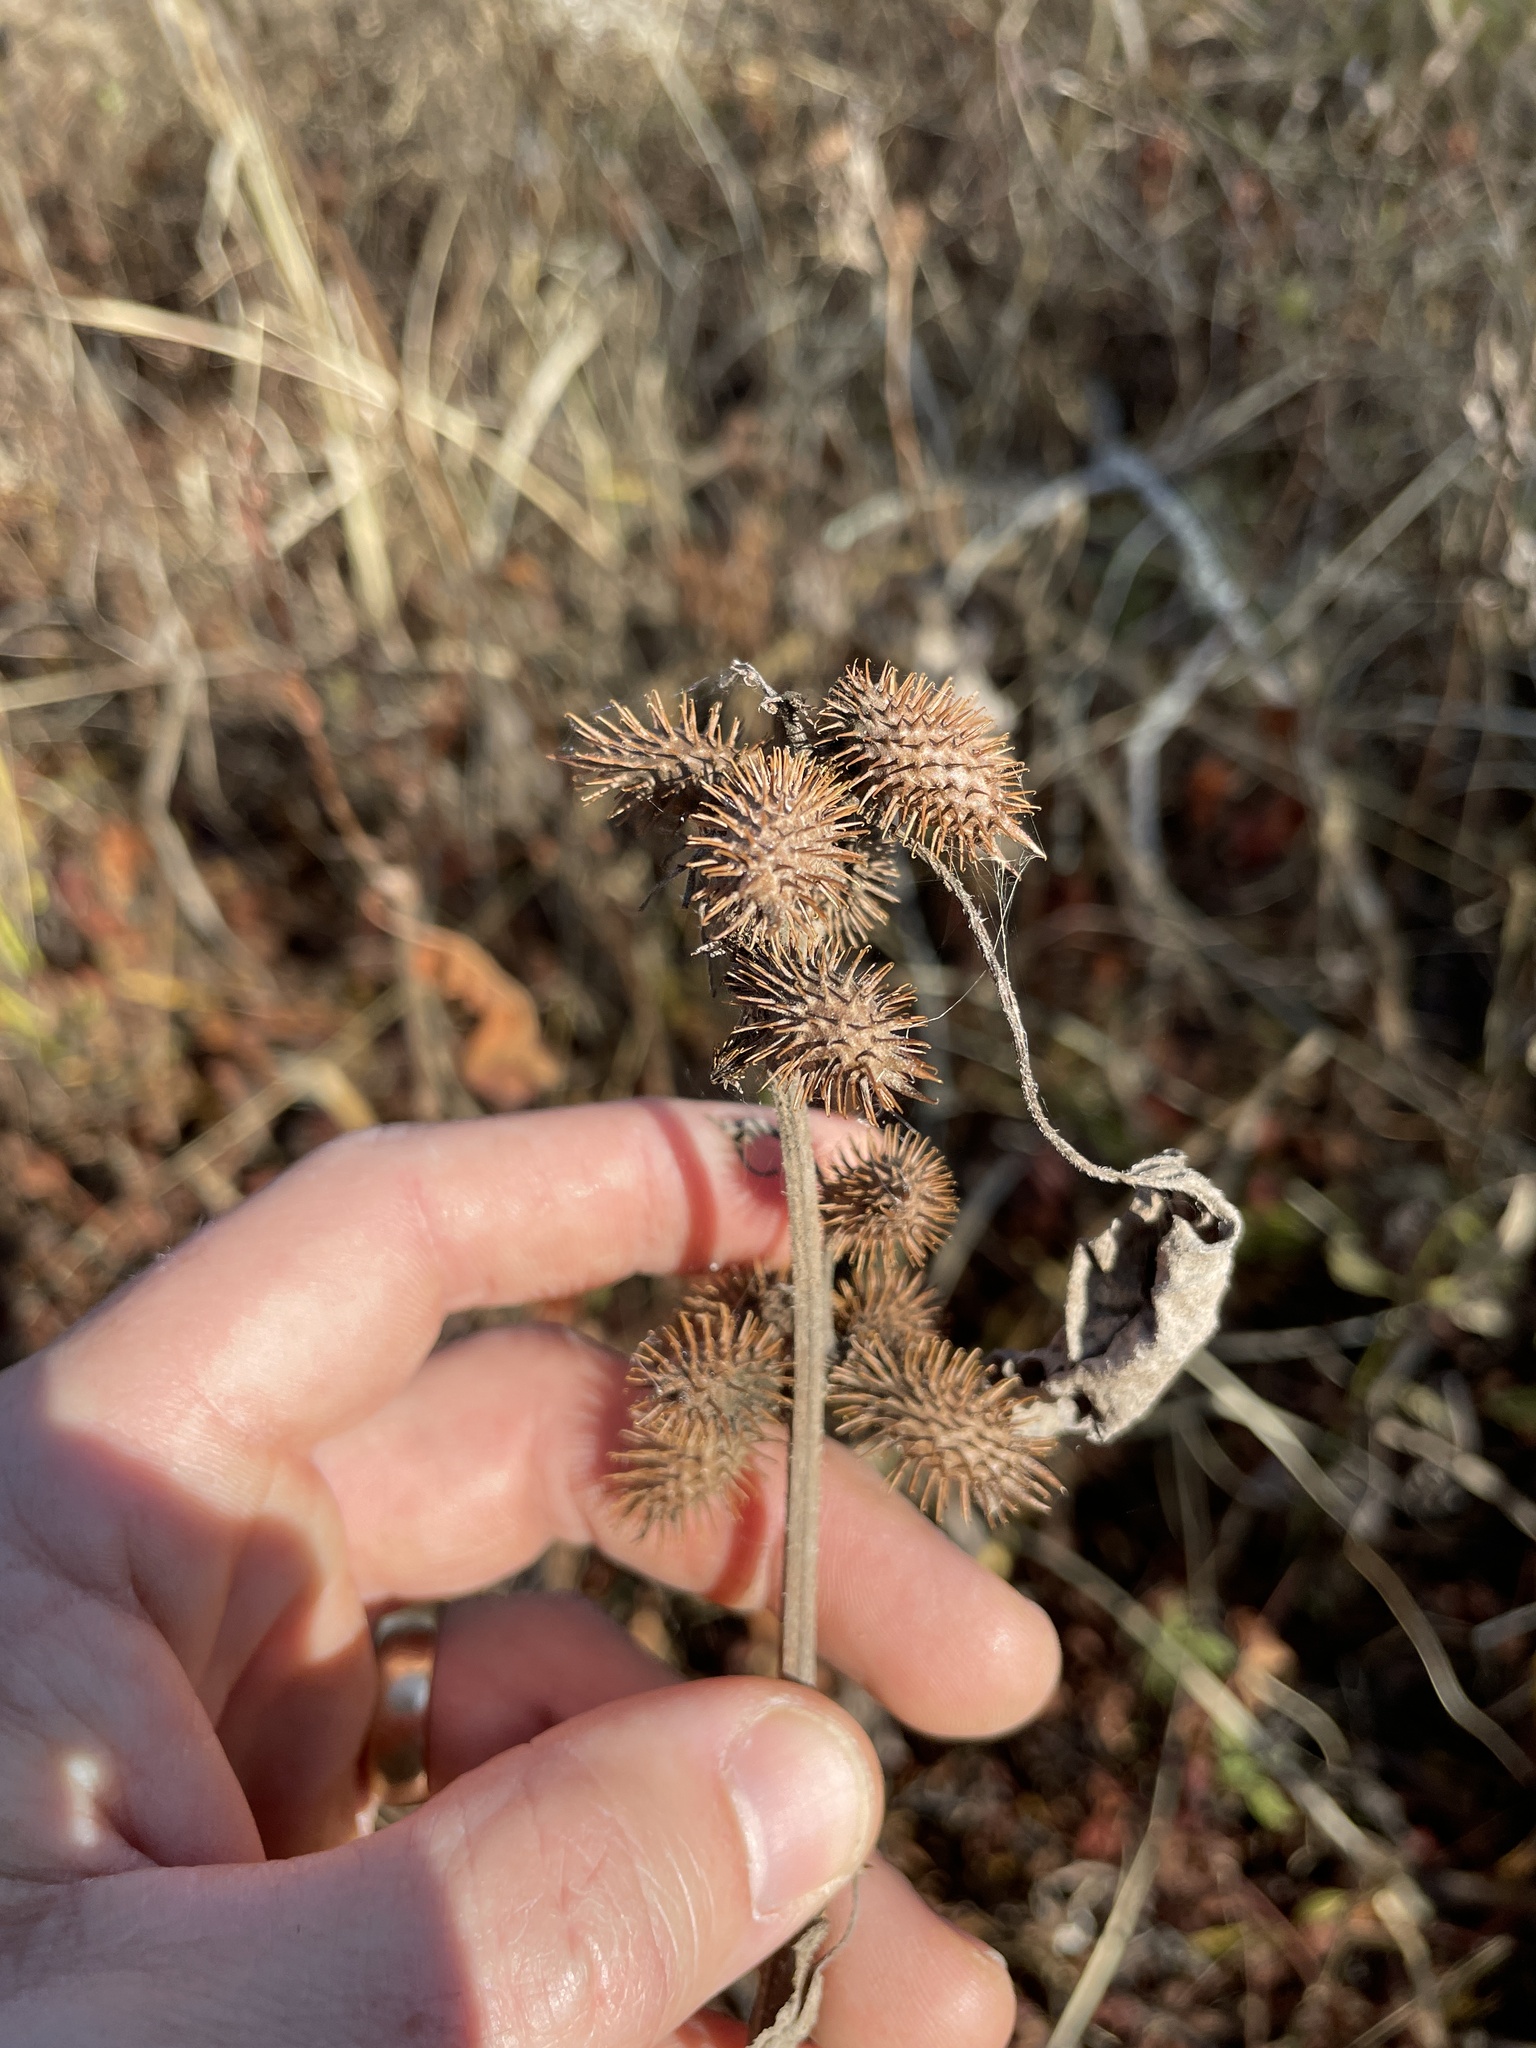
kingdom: Plantae
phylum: Tracheophyta
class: Magnoliopsida
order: Asterales
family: Asteraceae
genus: Xanthium
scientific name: Xanthium strumarium
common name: Rough cocklebur
